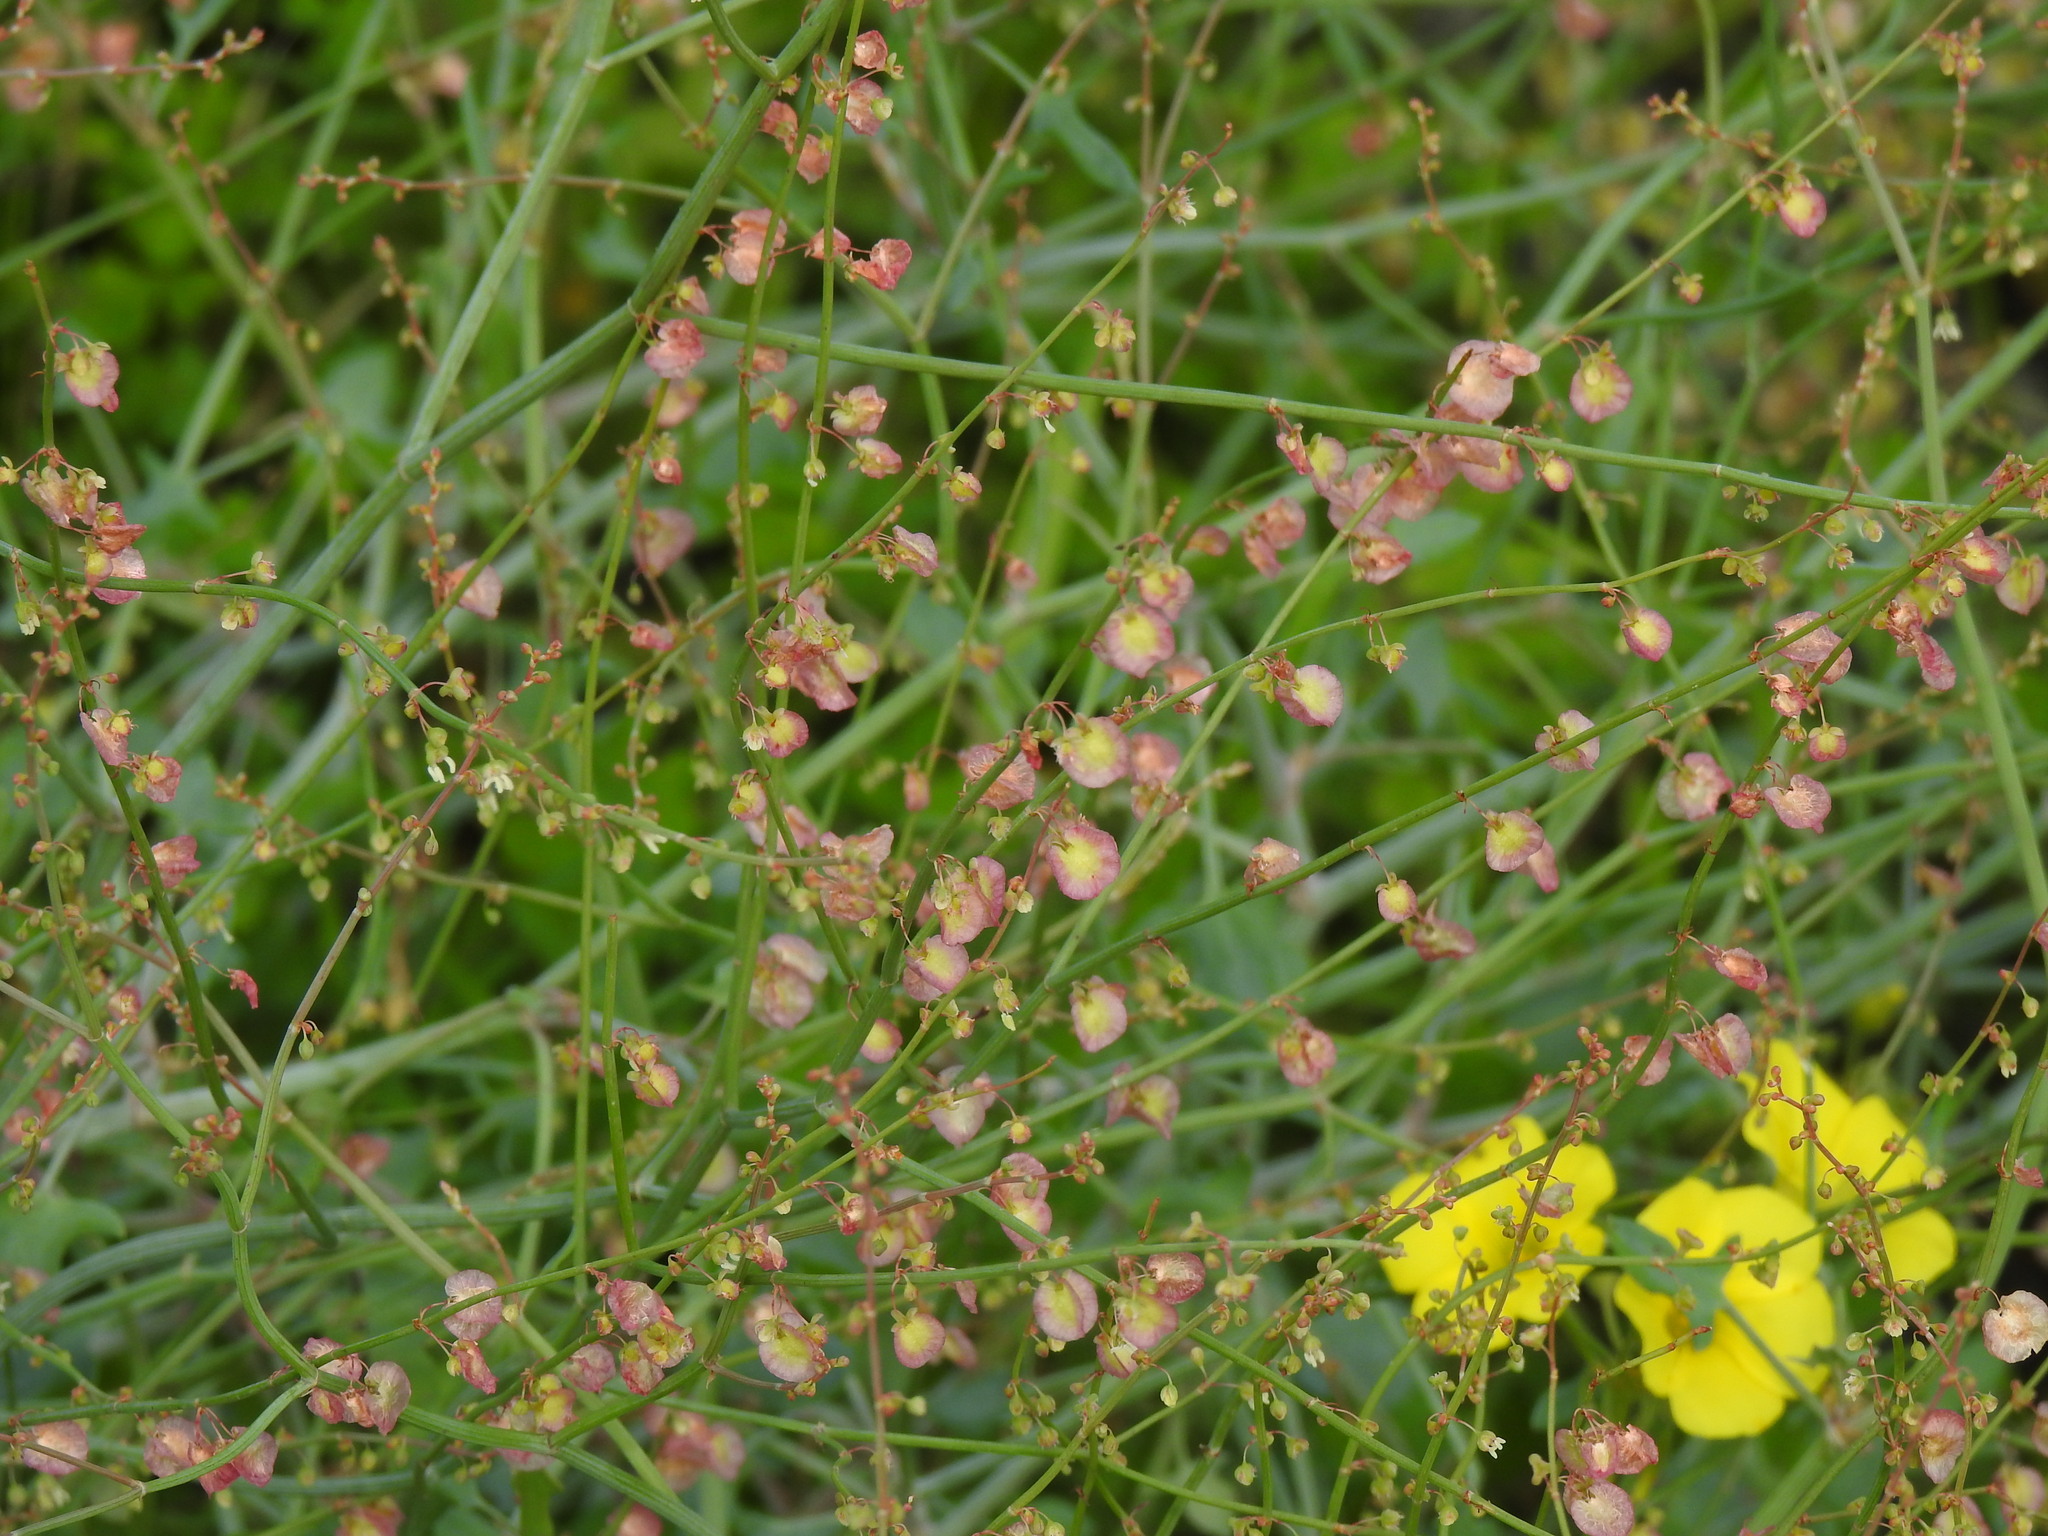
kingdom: Plantae
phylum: Tracheophyta
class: Magnoliopsida
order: Caryophyllales
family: Polygonaceae
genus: Rumex
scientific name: Rumex induratus
